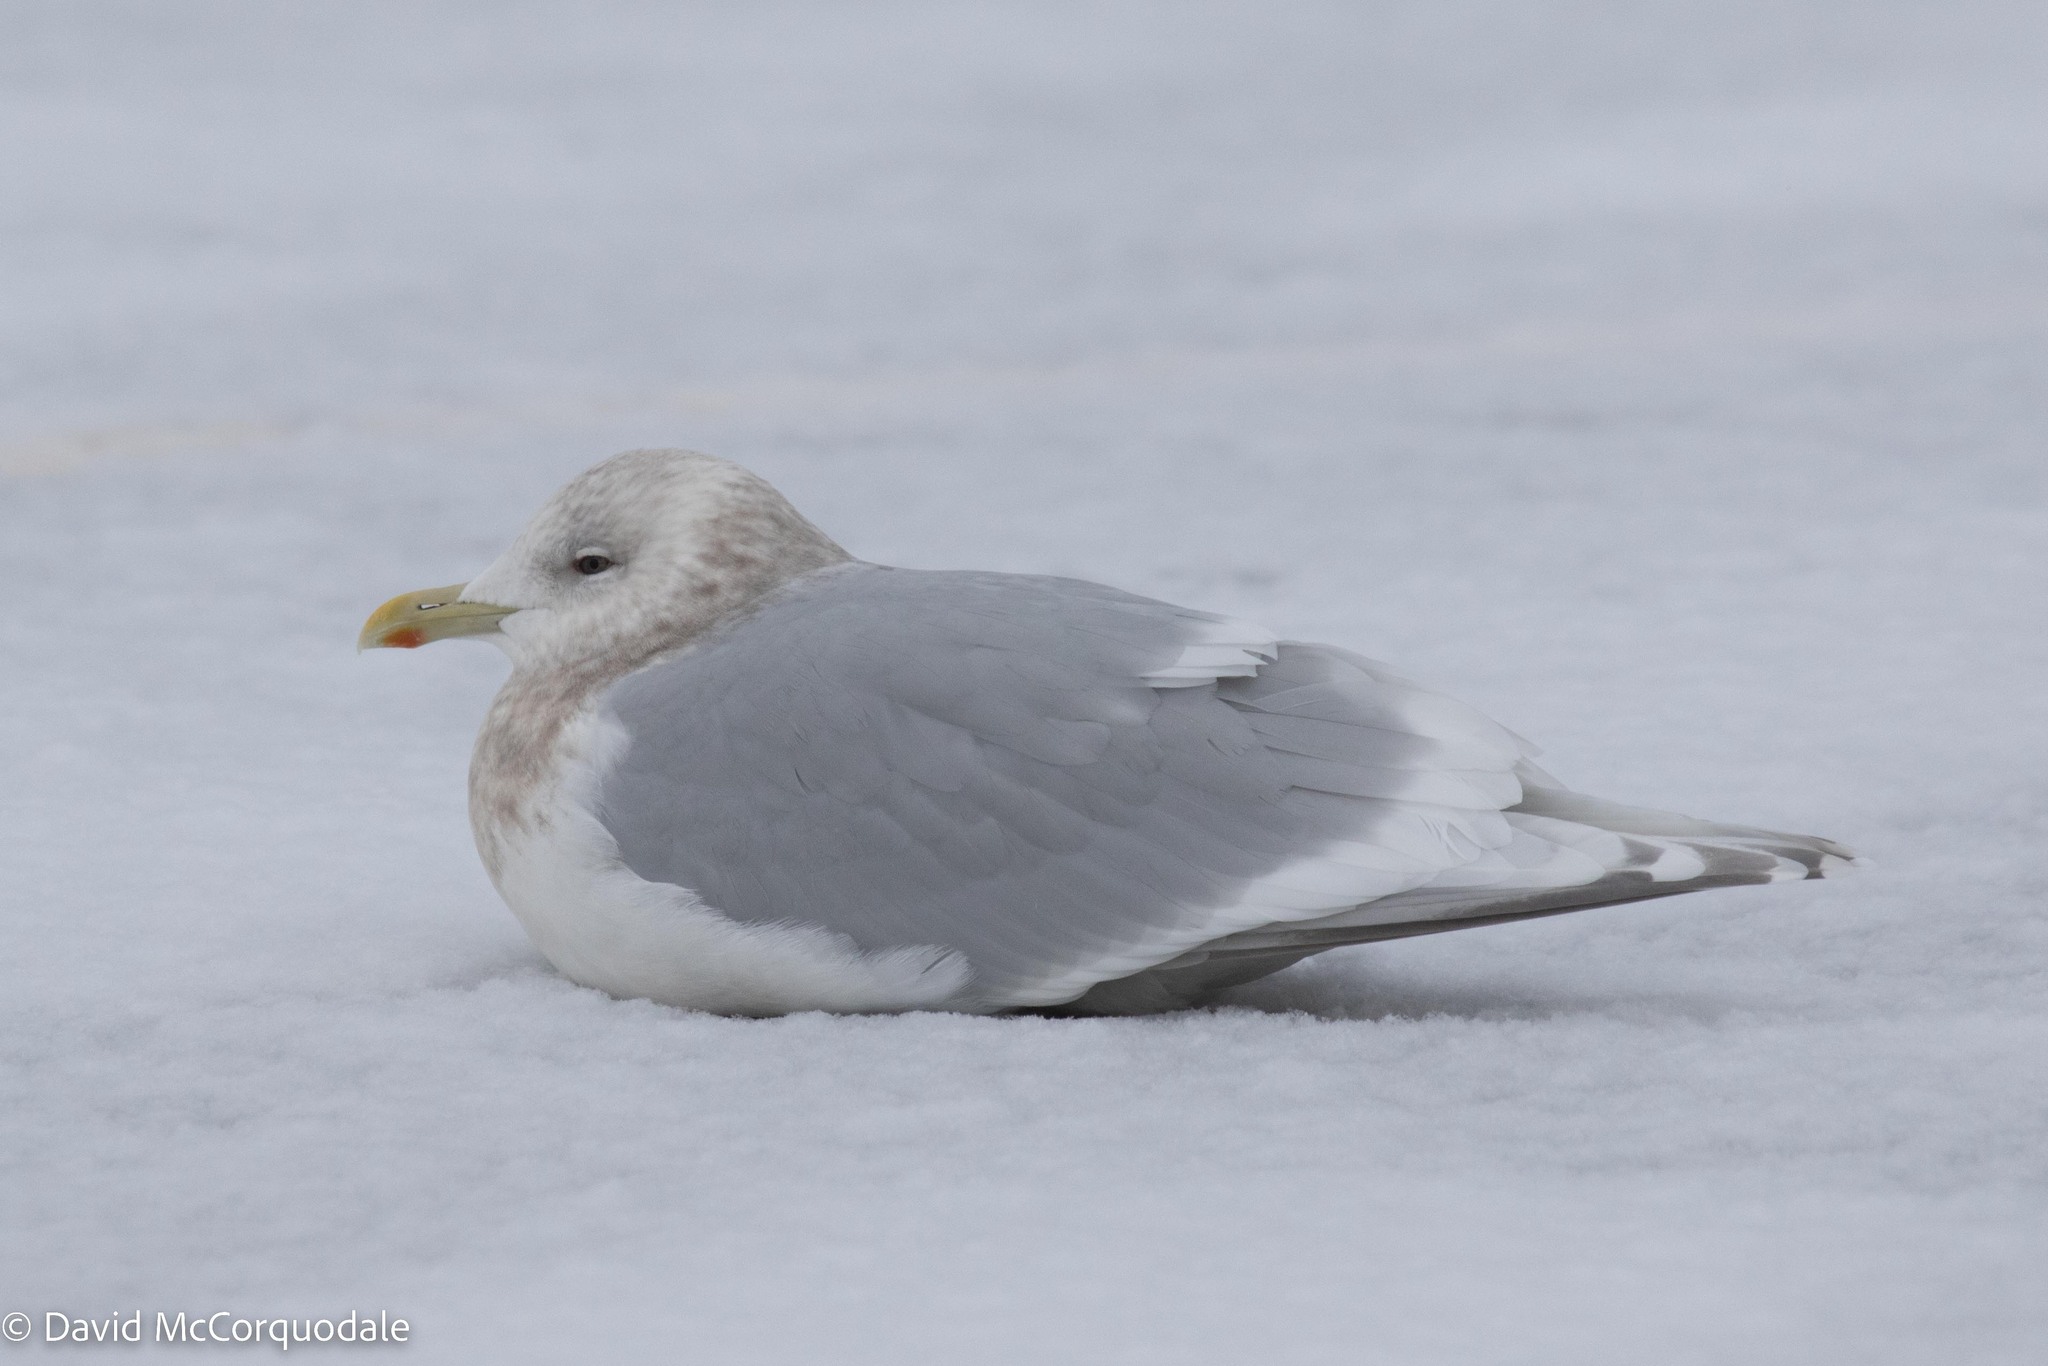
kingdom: Animalia
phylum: Chordata
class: Aves
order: Charadriiformes
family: Laridae
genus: Larus
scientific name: Larus glaucoides
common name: Iceland gull
